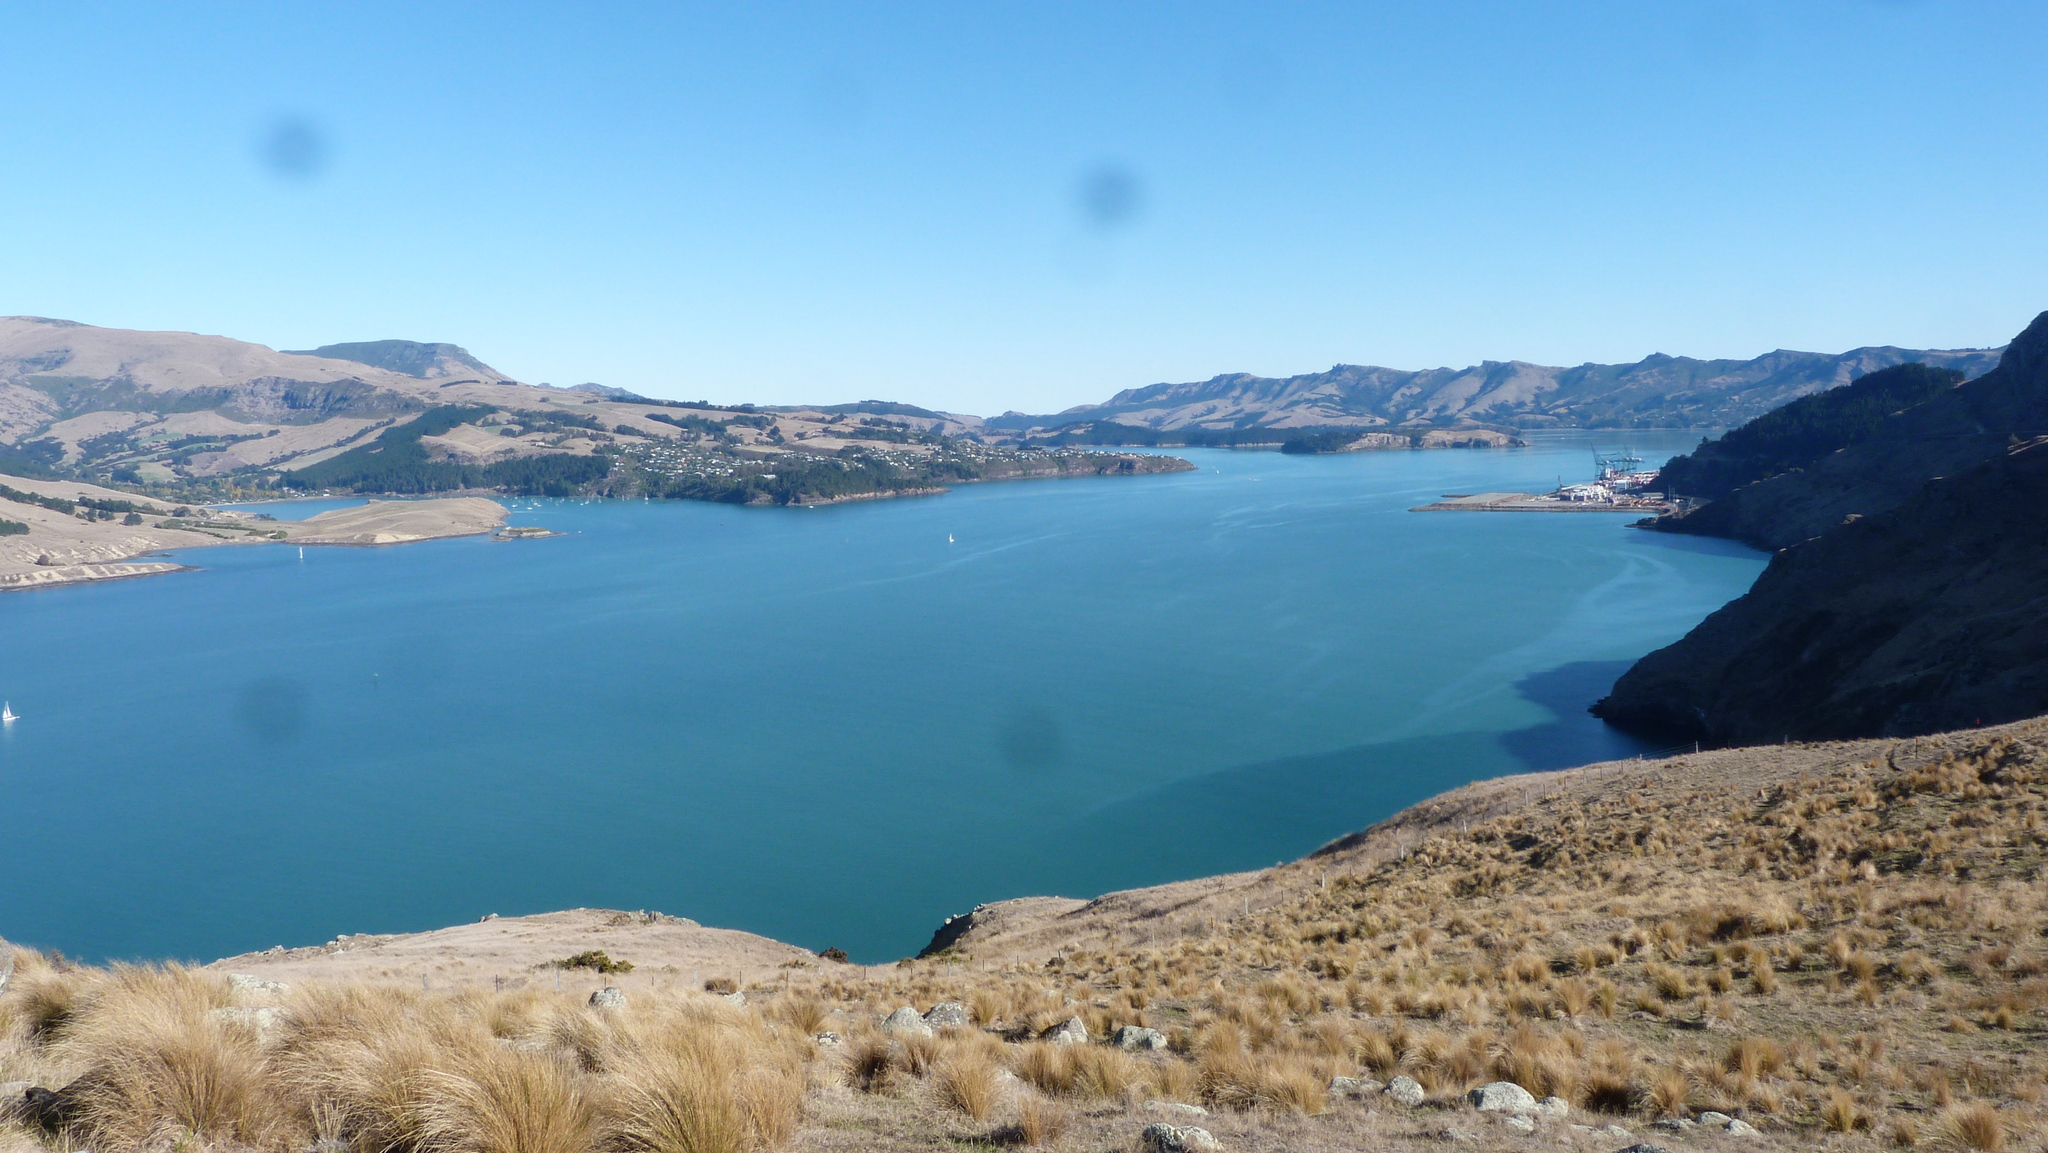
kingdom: Plantae
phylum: Tracheophyta
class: Liliopsida
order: Poales
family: Poaceae
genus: Poa
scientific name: Poa cita
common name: Silver tussock
